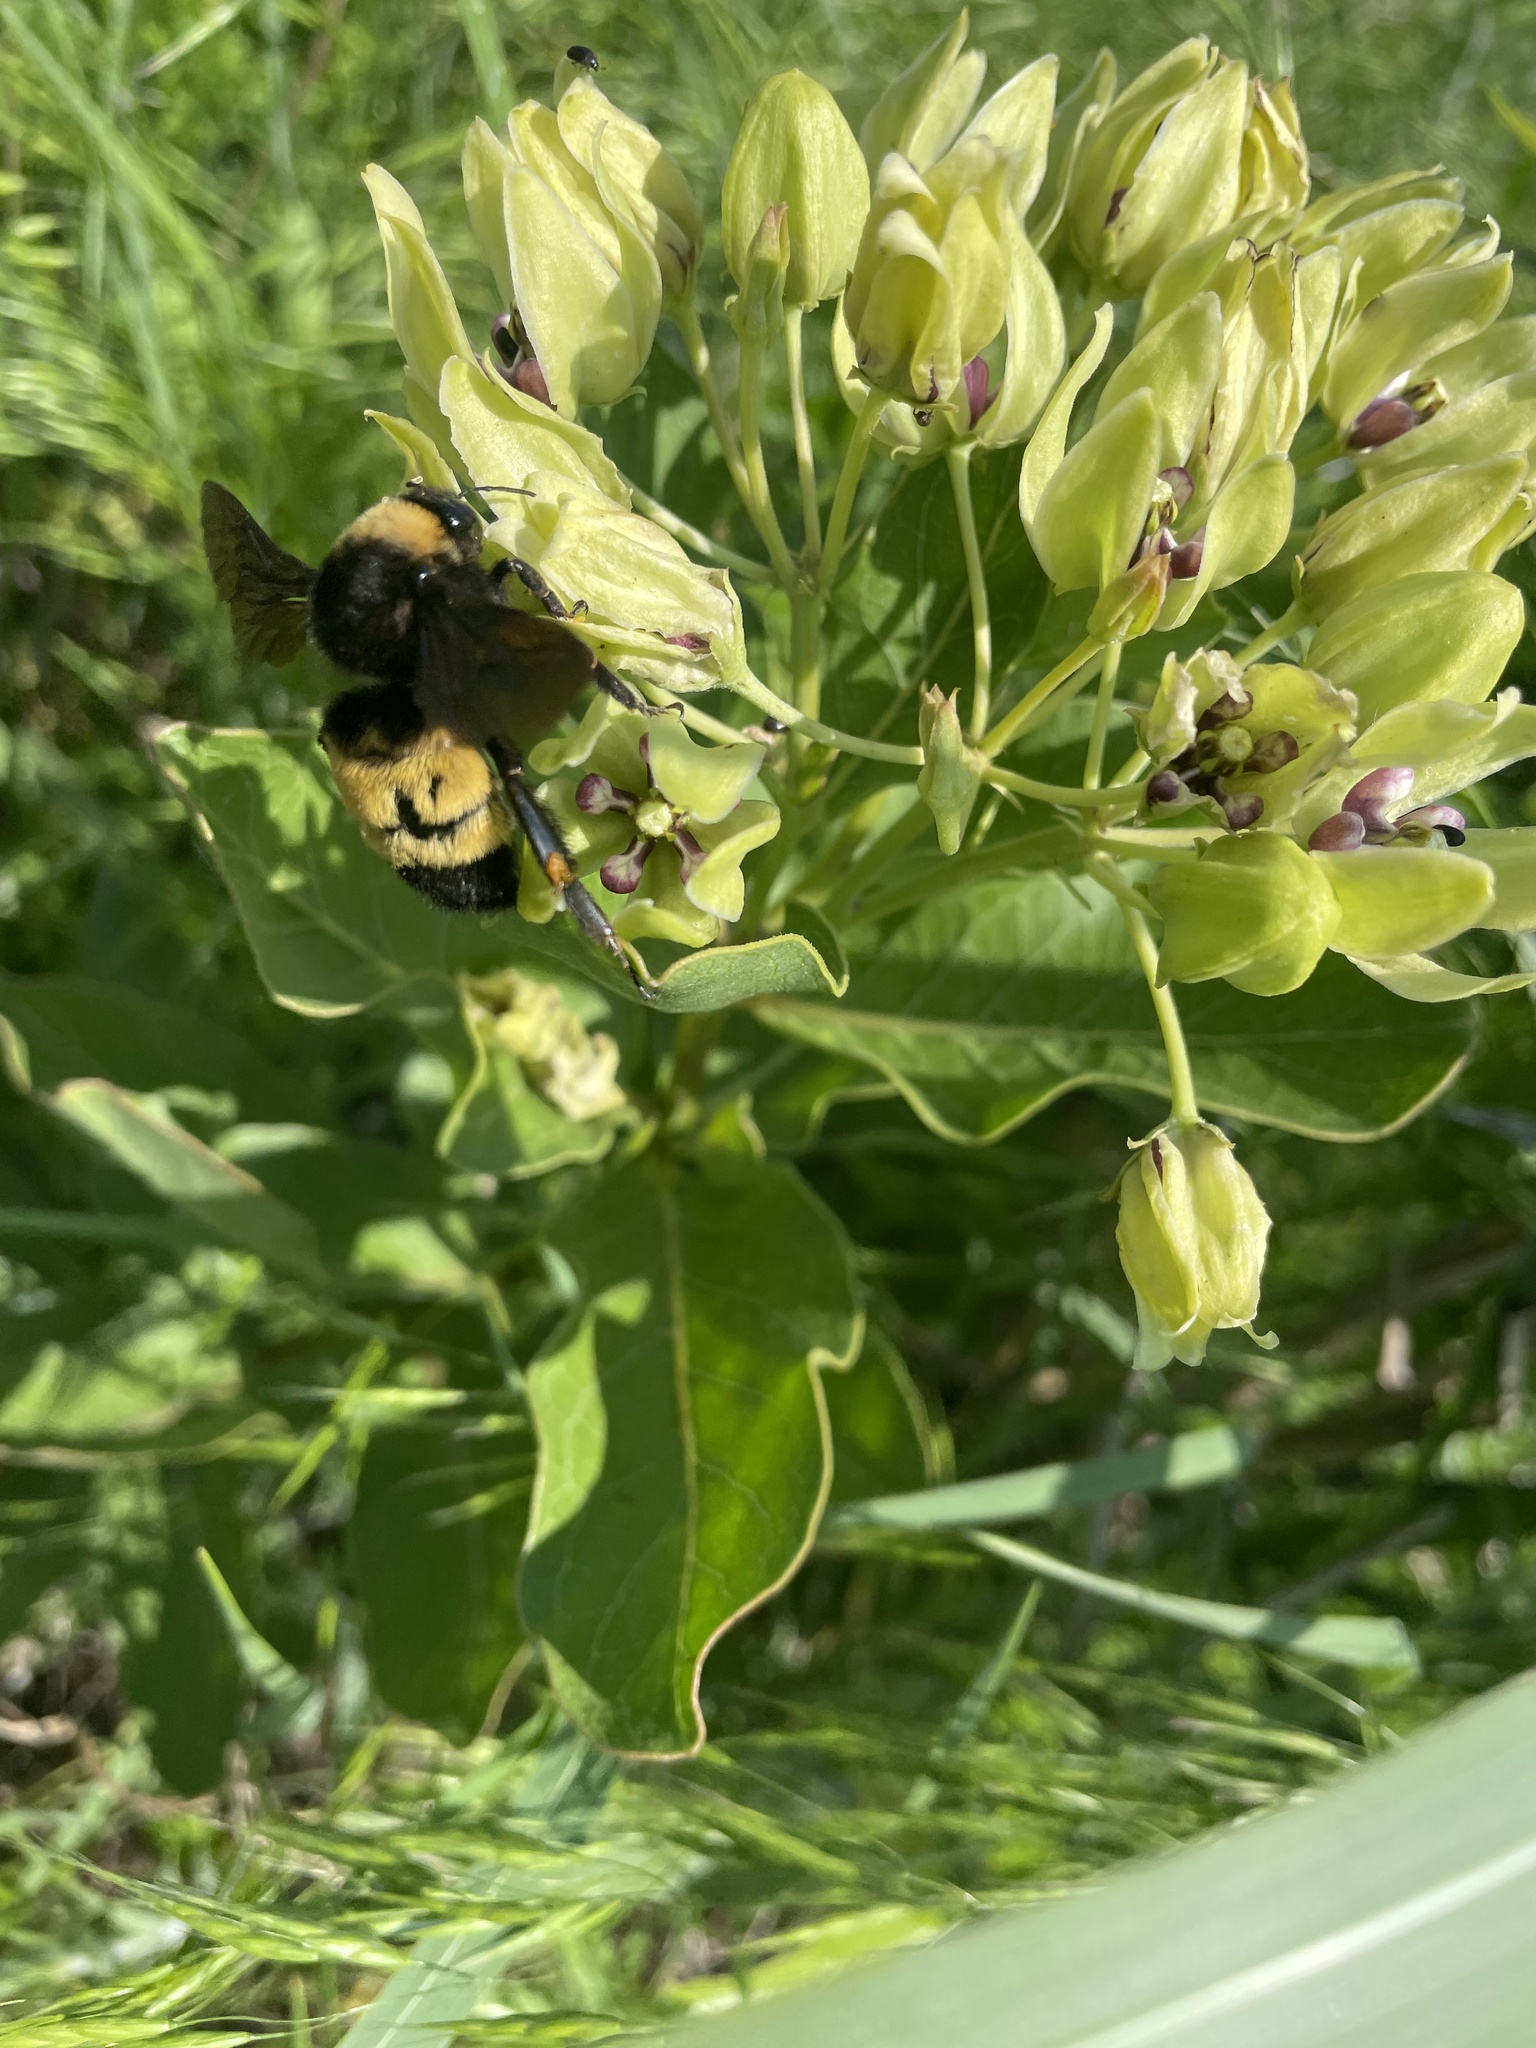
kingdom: Animalia
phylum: Arthropoda
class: Insecta
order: Hymenoptera
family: Apidae
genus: Bombus
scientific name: Bombus pensylvanicus
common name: Bumble bee
